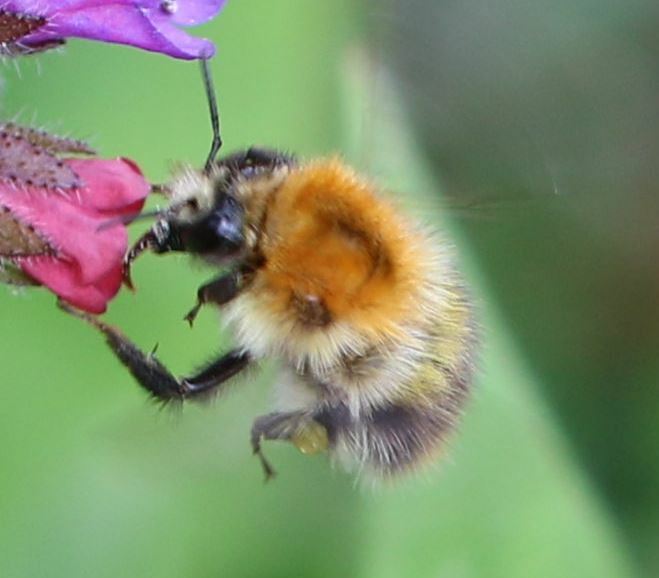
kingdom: Animalia
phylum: Arthropoda
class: Insecta
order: Hymenoptera
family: Apidae
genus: Bombus
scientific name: Bombus pascuorum
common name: Common carder bee
